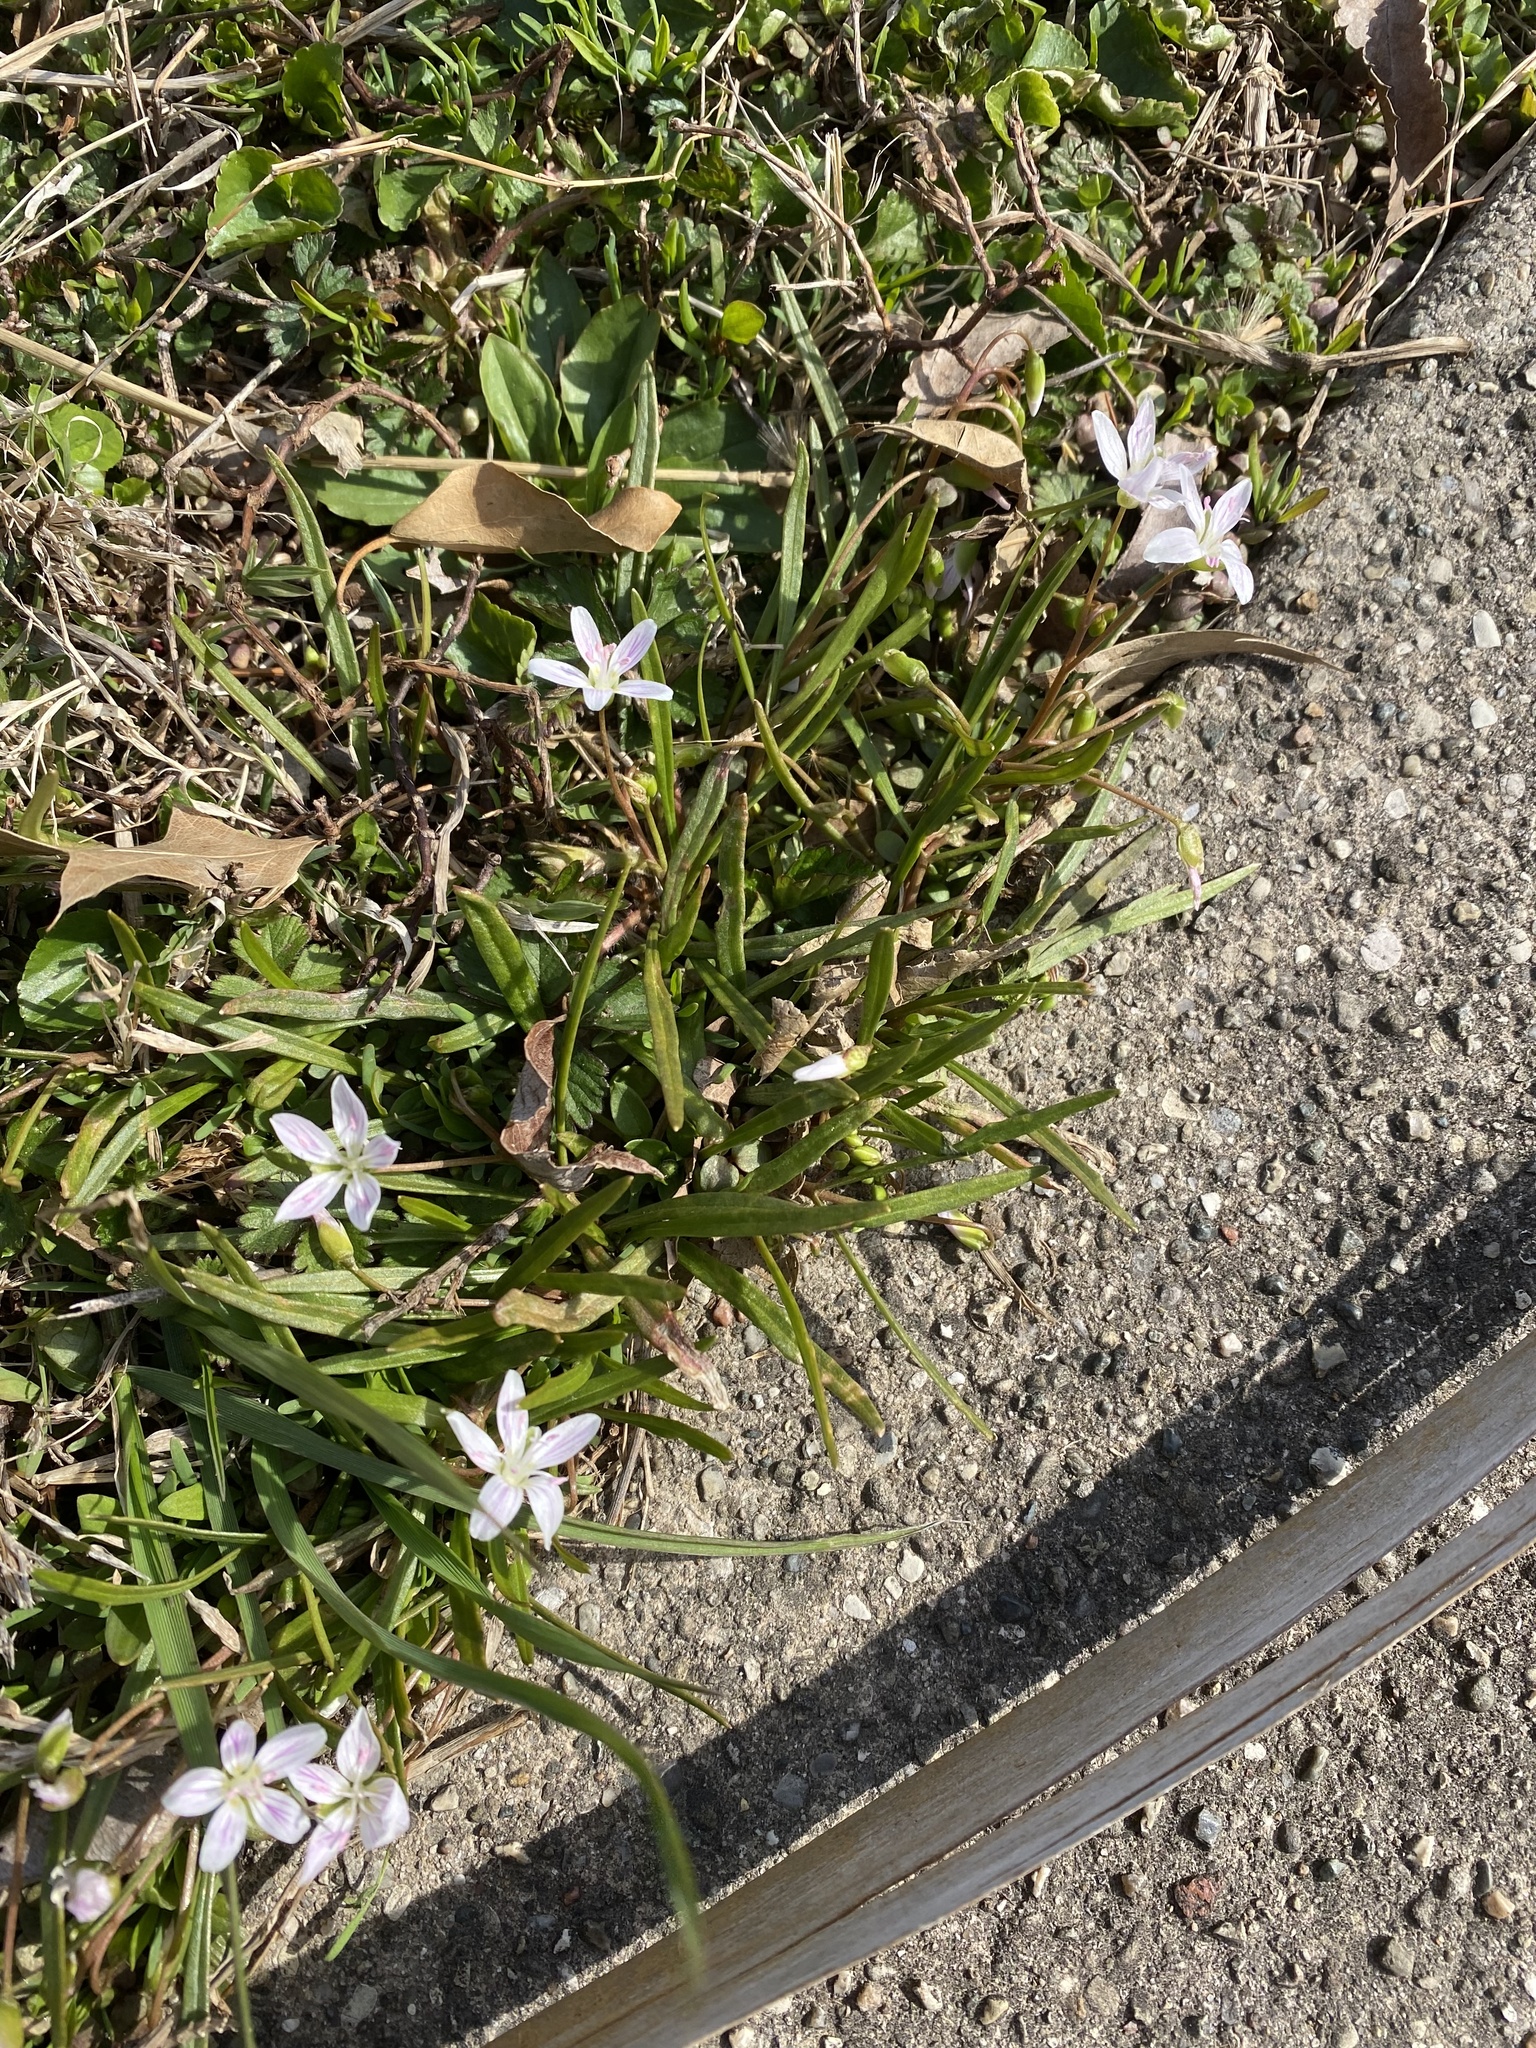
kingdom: Plantae
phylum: Tracheophyta
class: Magnoliopsida
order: Caryophyllales
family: Montiaceae
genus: Claytonia
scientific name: Claytonia virginica
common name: Virginia springbeauty
